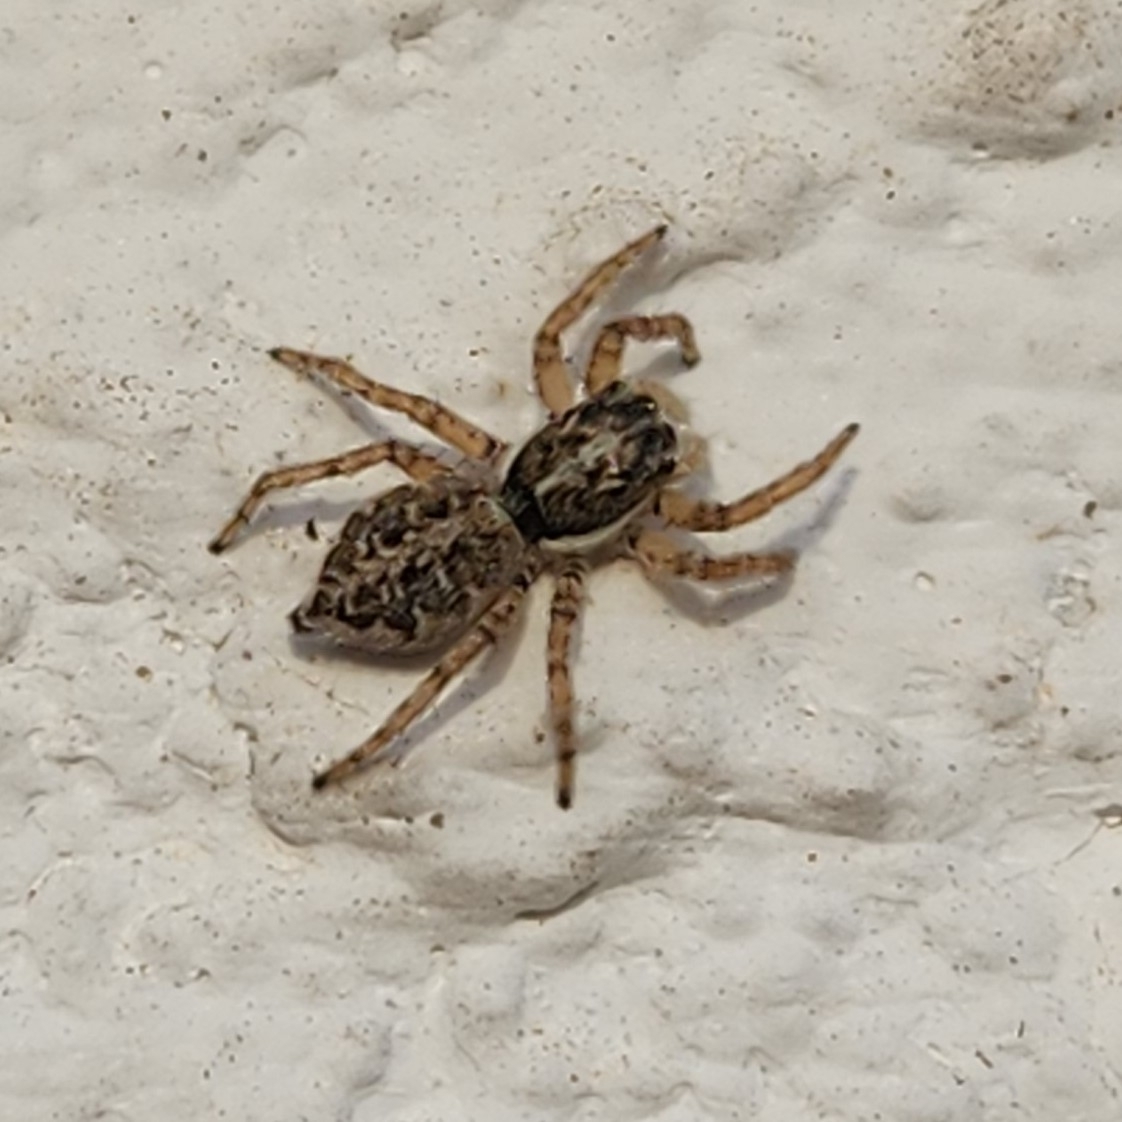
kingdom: Animalia
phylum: Arthropoda
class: Arachnida
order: Araneae
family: Salticidae
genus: Menemerus
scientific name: Menemerus semilimbatus
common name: Jumping spider
